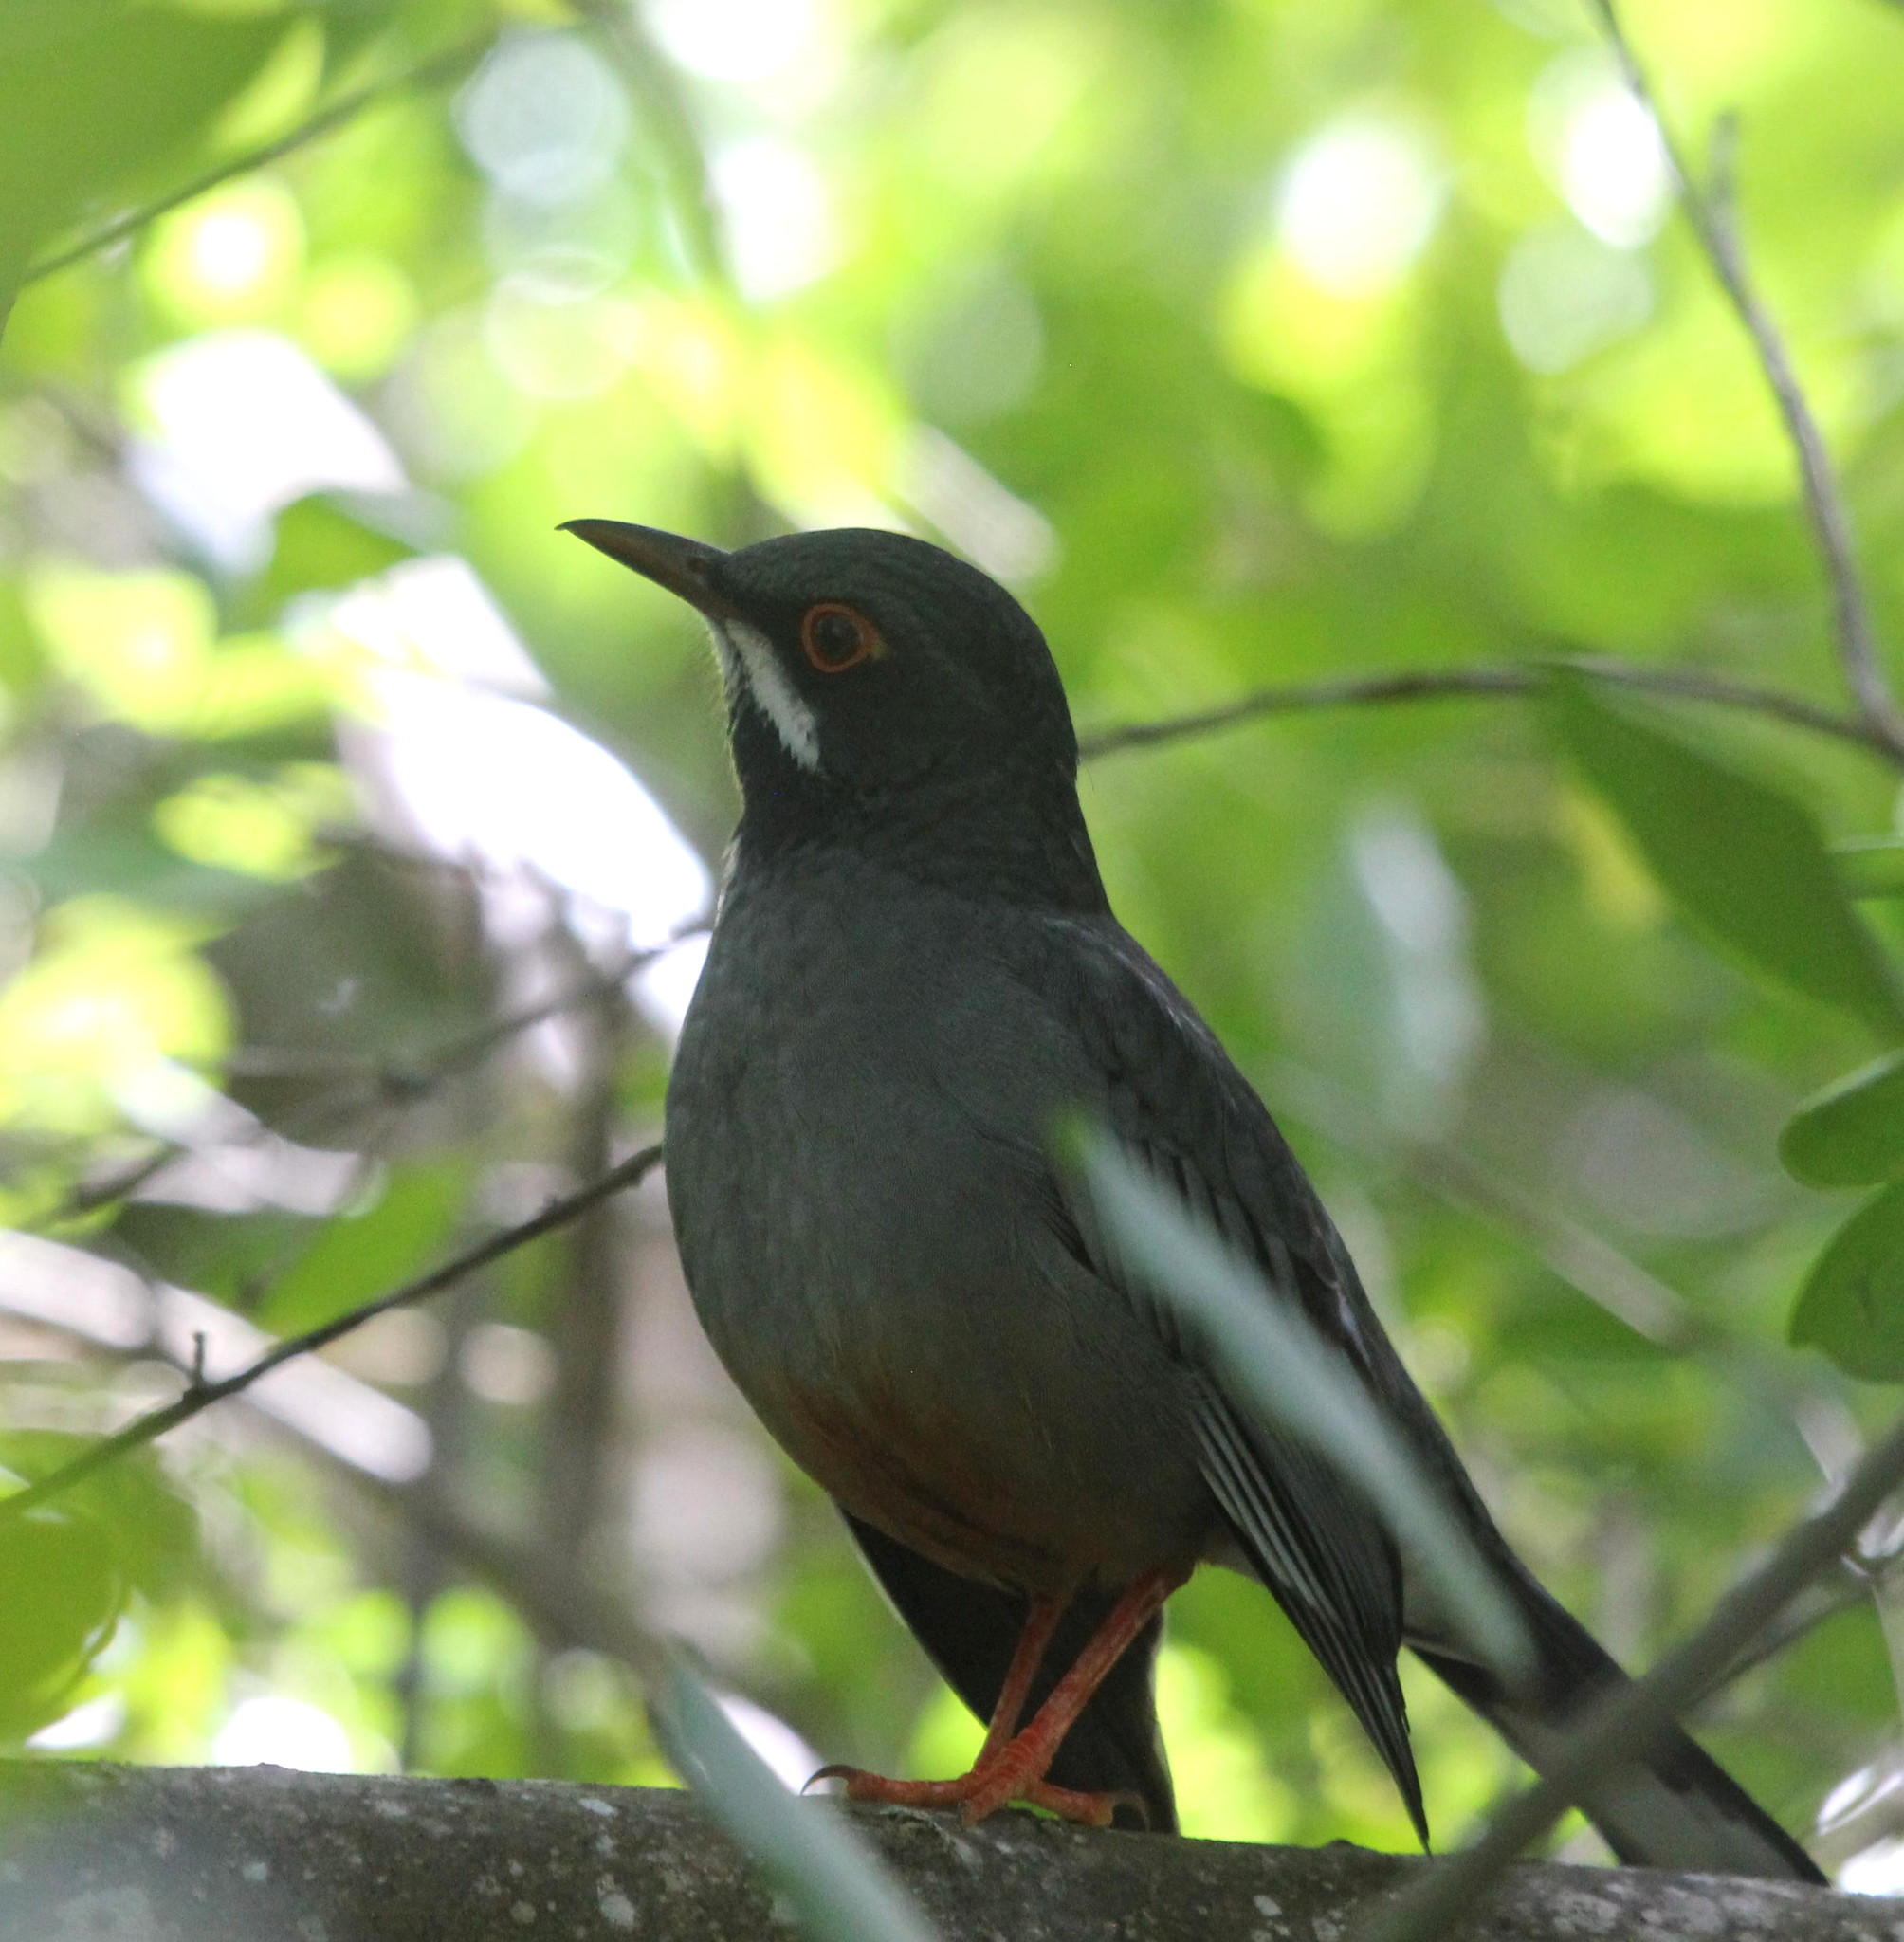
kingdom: Animalia
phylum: Chordata
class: Aves
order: Passeriformes
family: Turdidae
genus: Turdus
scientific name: Turdus plumbeus
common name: Red-legged thrush
